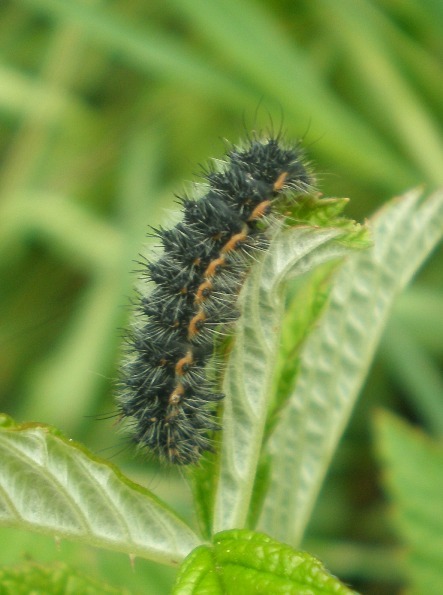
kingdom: Animalia
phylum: Arthropoda
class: Insecta
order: Lepidoptera
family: Saturniidae
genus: Saturnia
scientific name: Saturnia pavonia
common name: Emperor moth
